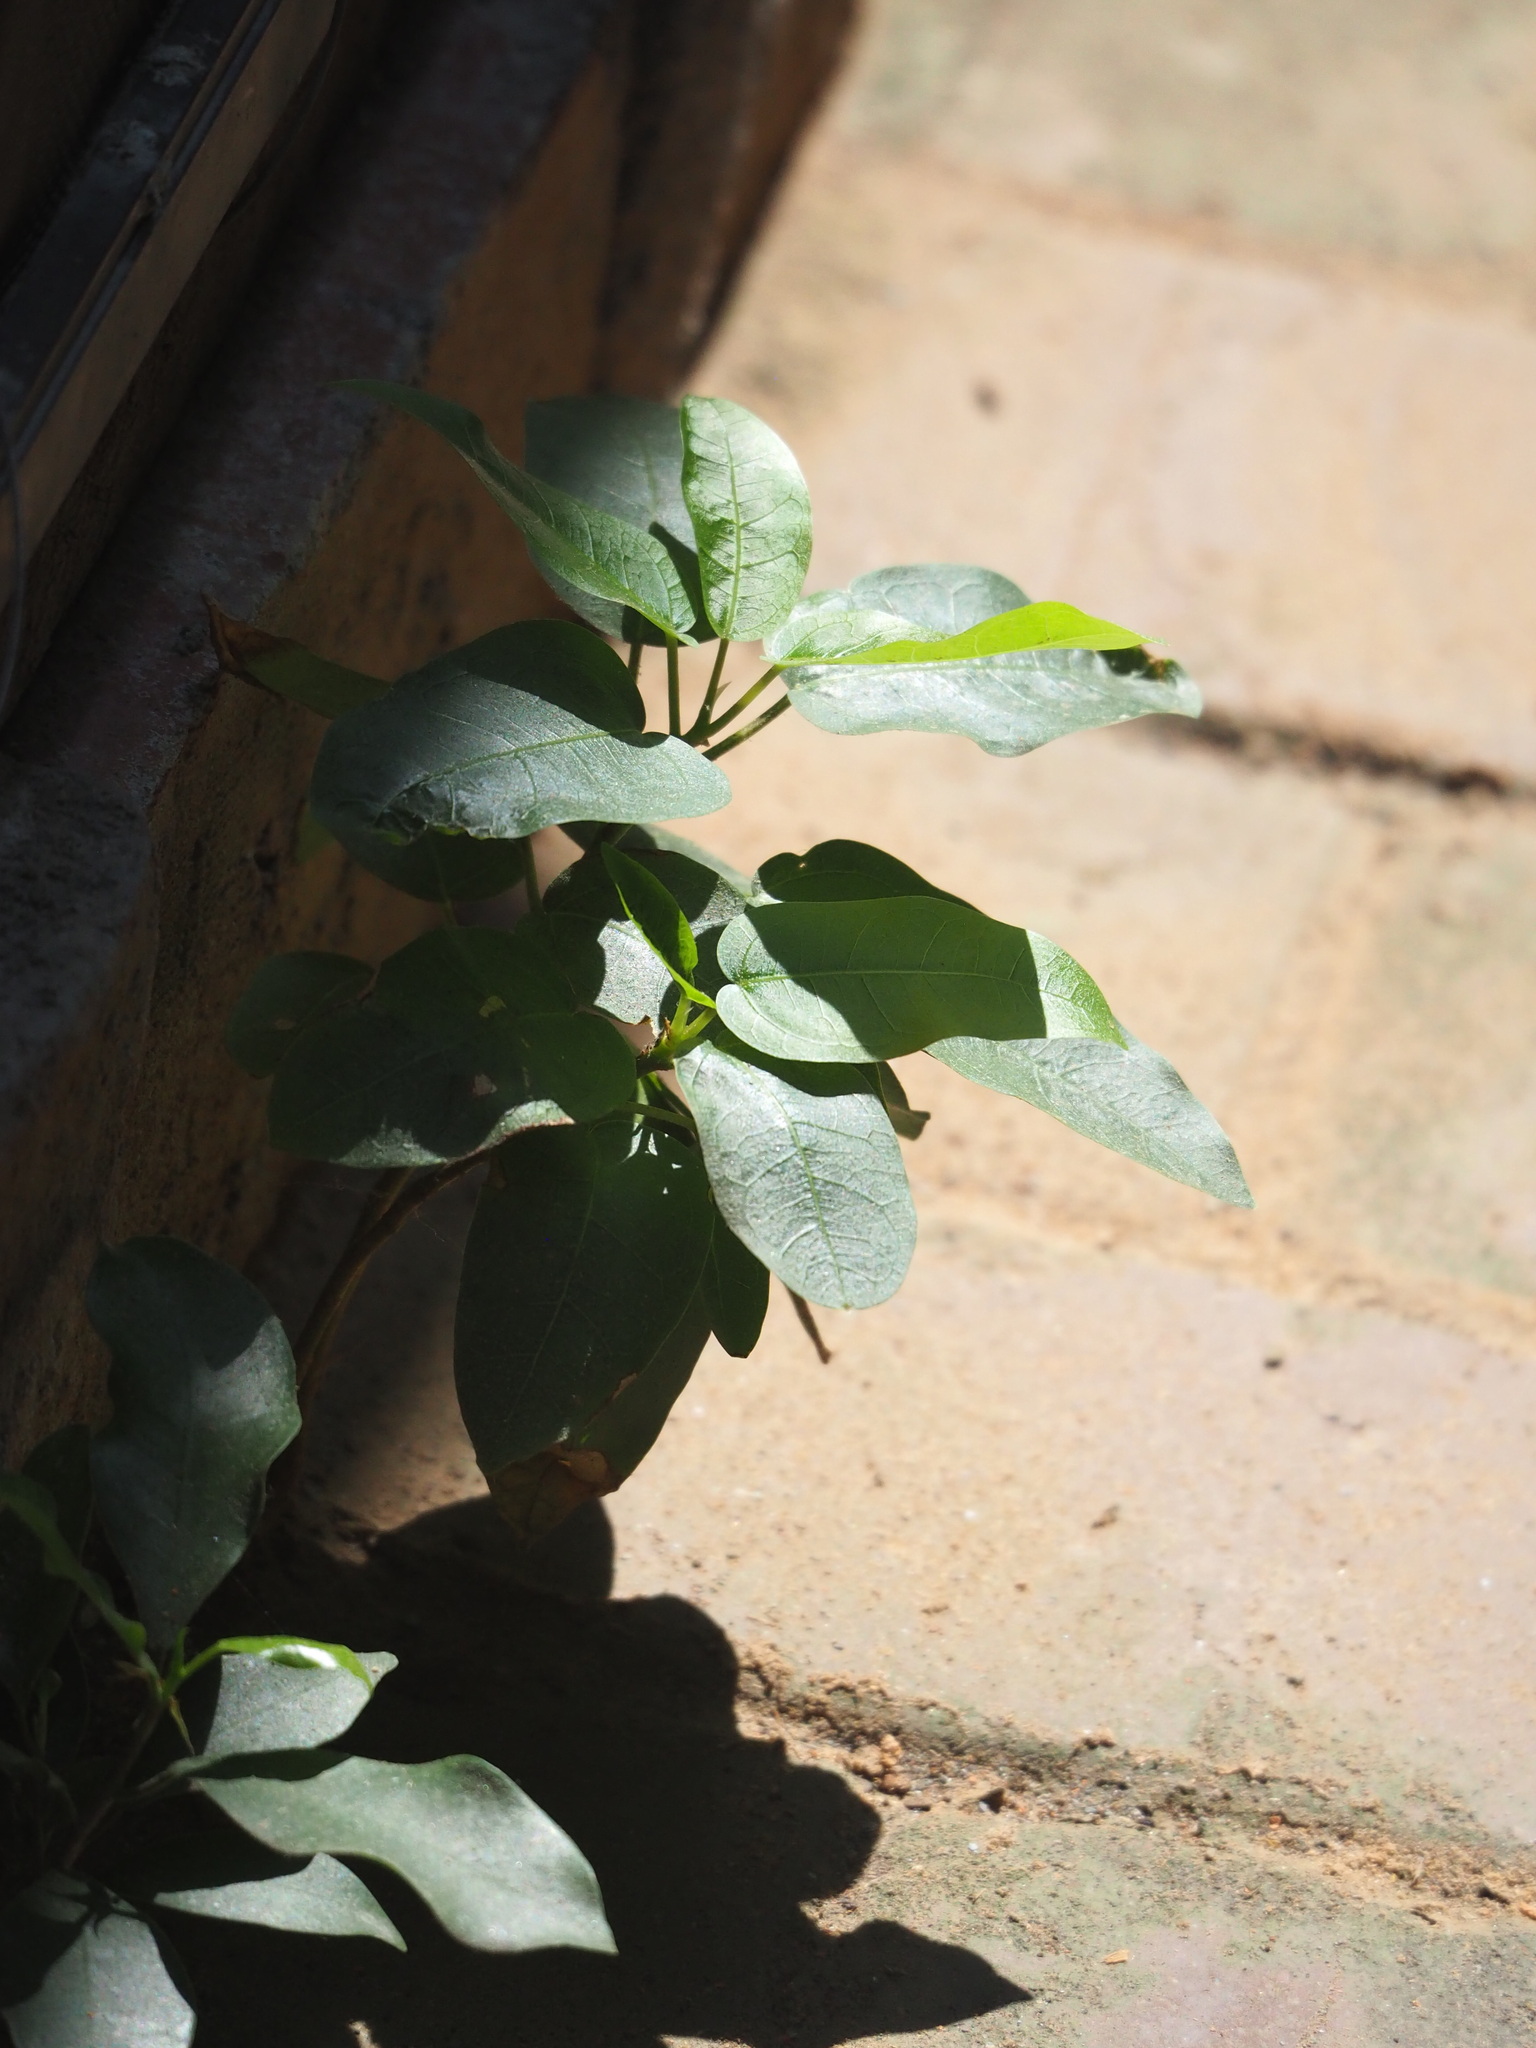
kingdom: Plantae
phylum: Tracheophyta
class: Magnoliopsida
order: Rosales
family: Moraceae
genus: Ficus
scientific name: Ficus subpisocarpa
